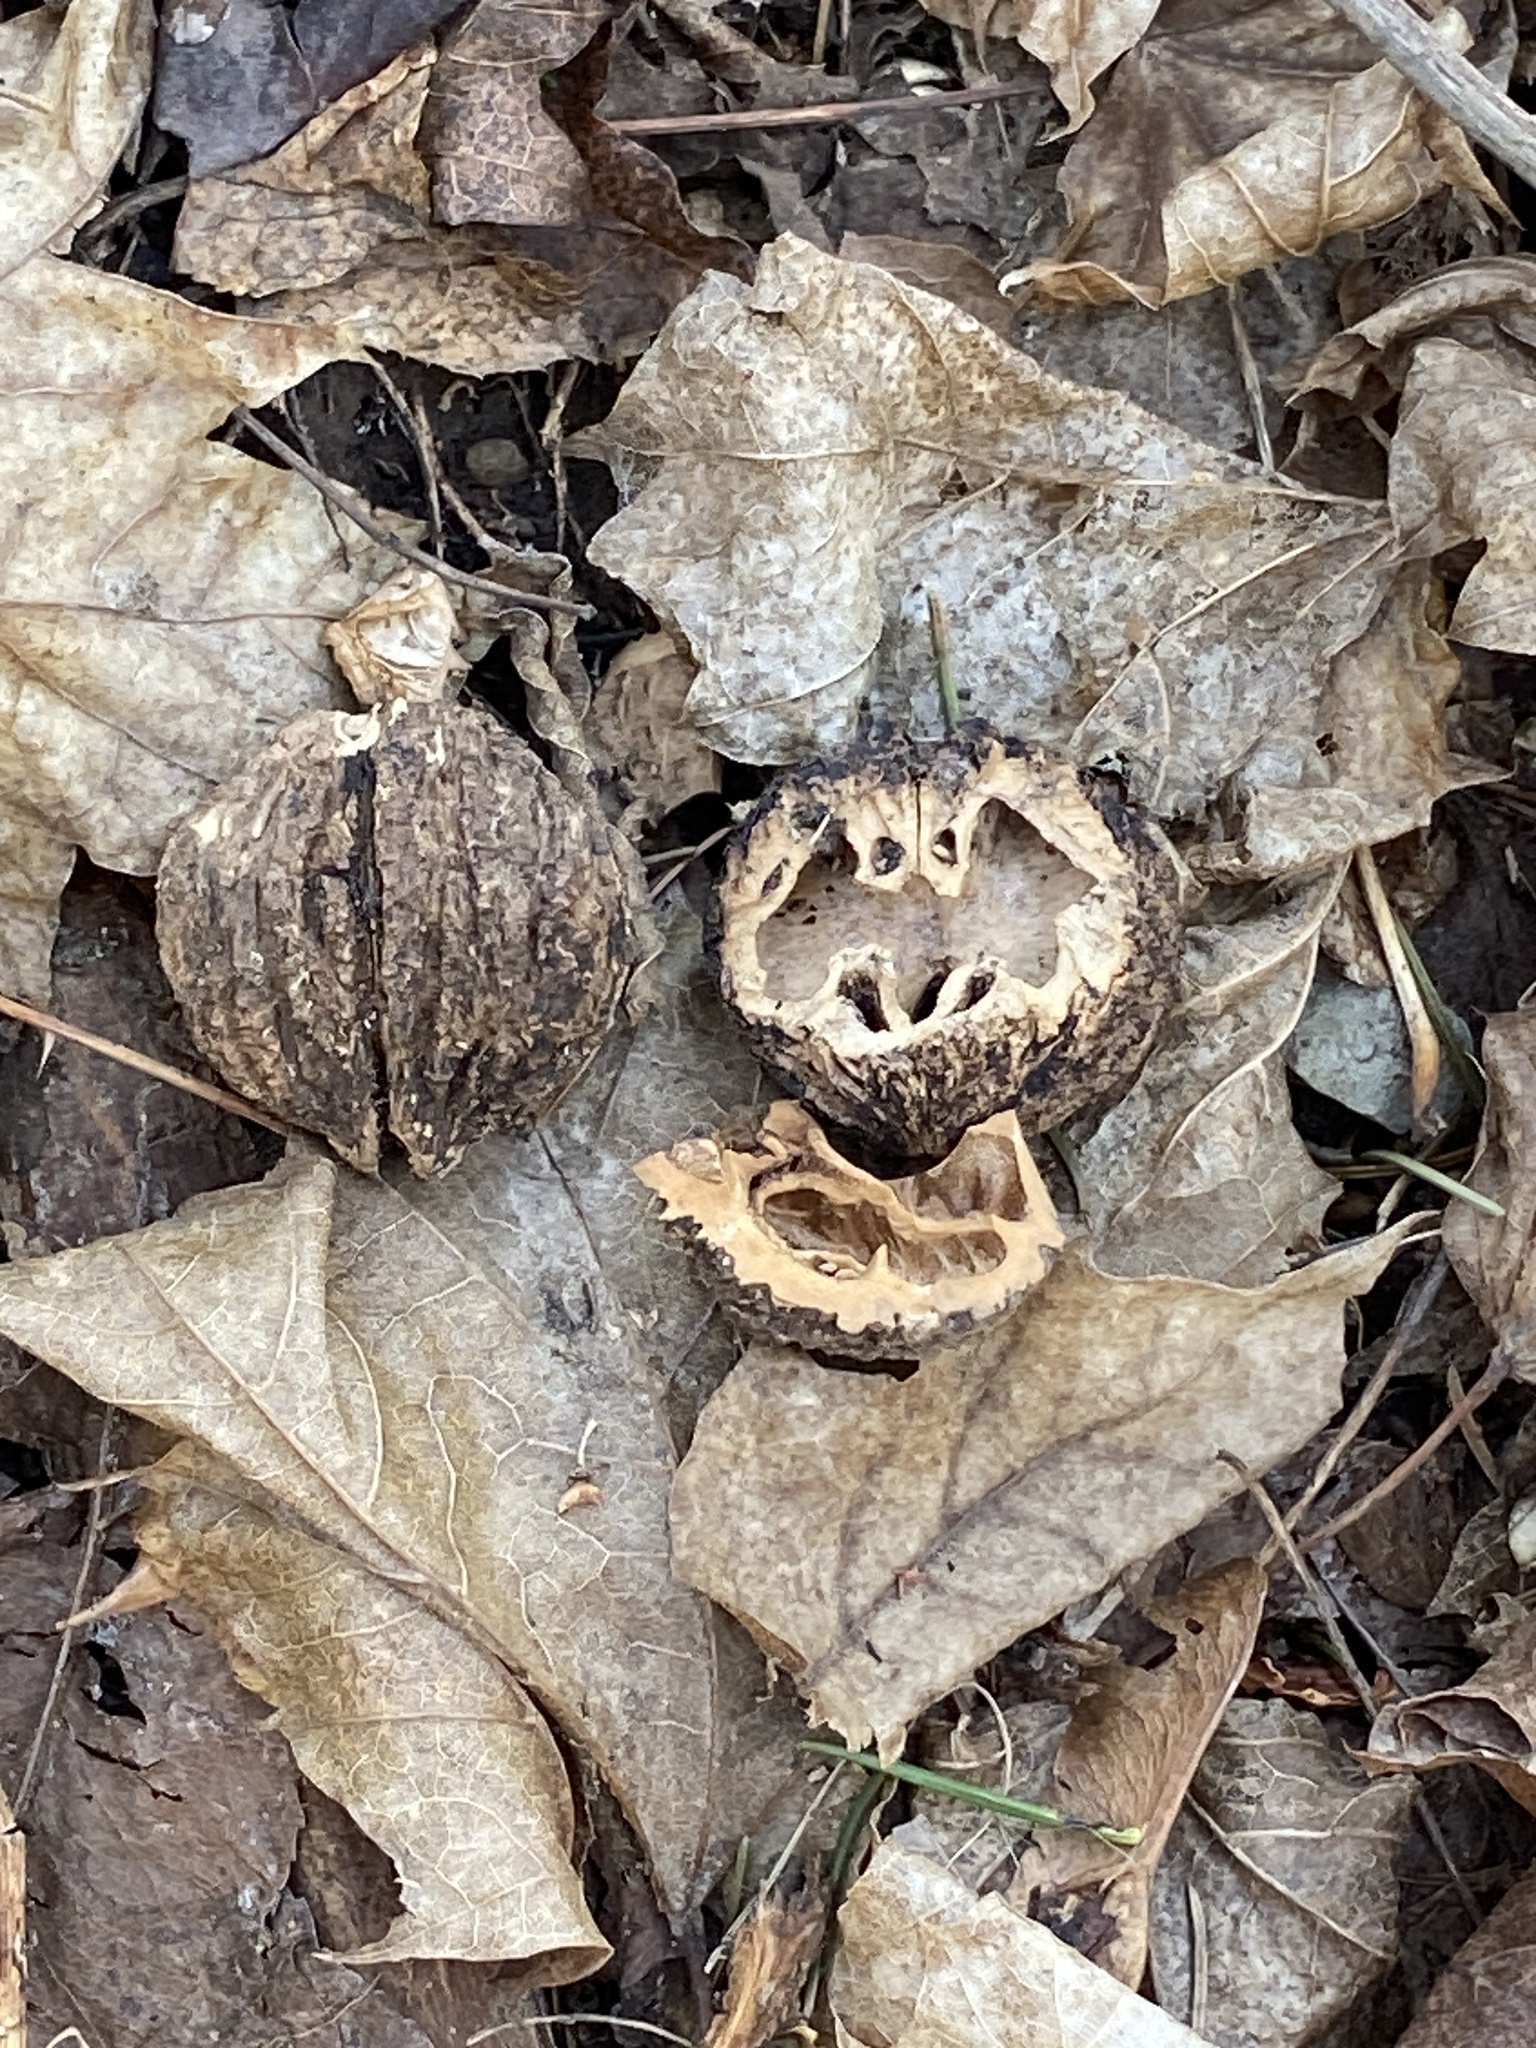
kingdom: Plantae
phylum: Tracheophyta
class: Magnoliopsida
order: Fagales
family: Juglandaceae
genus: Juglans
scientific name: Juglans nigra
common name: Black walnut
